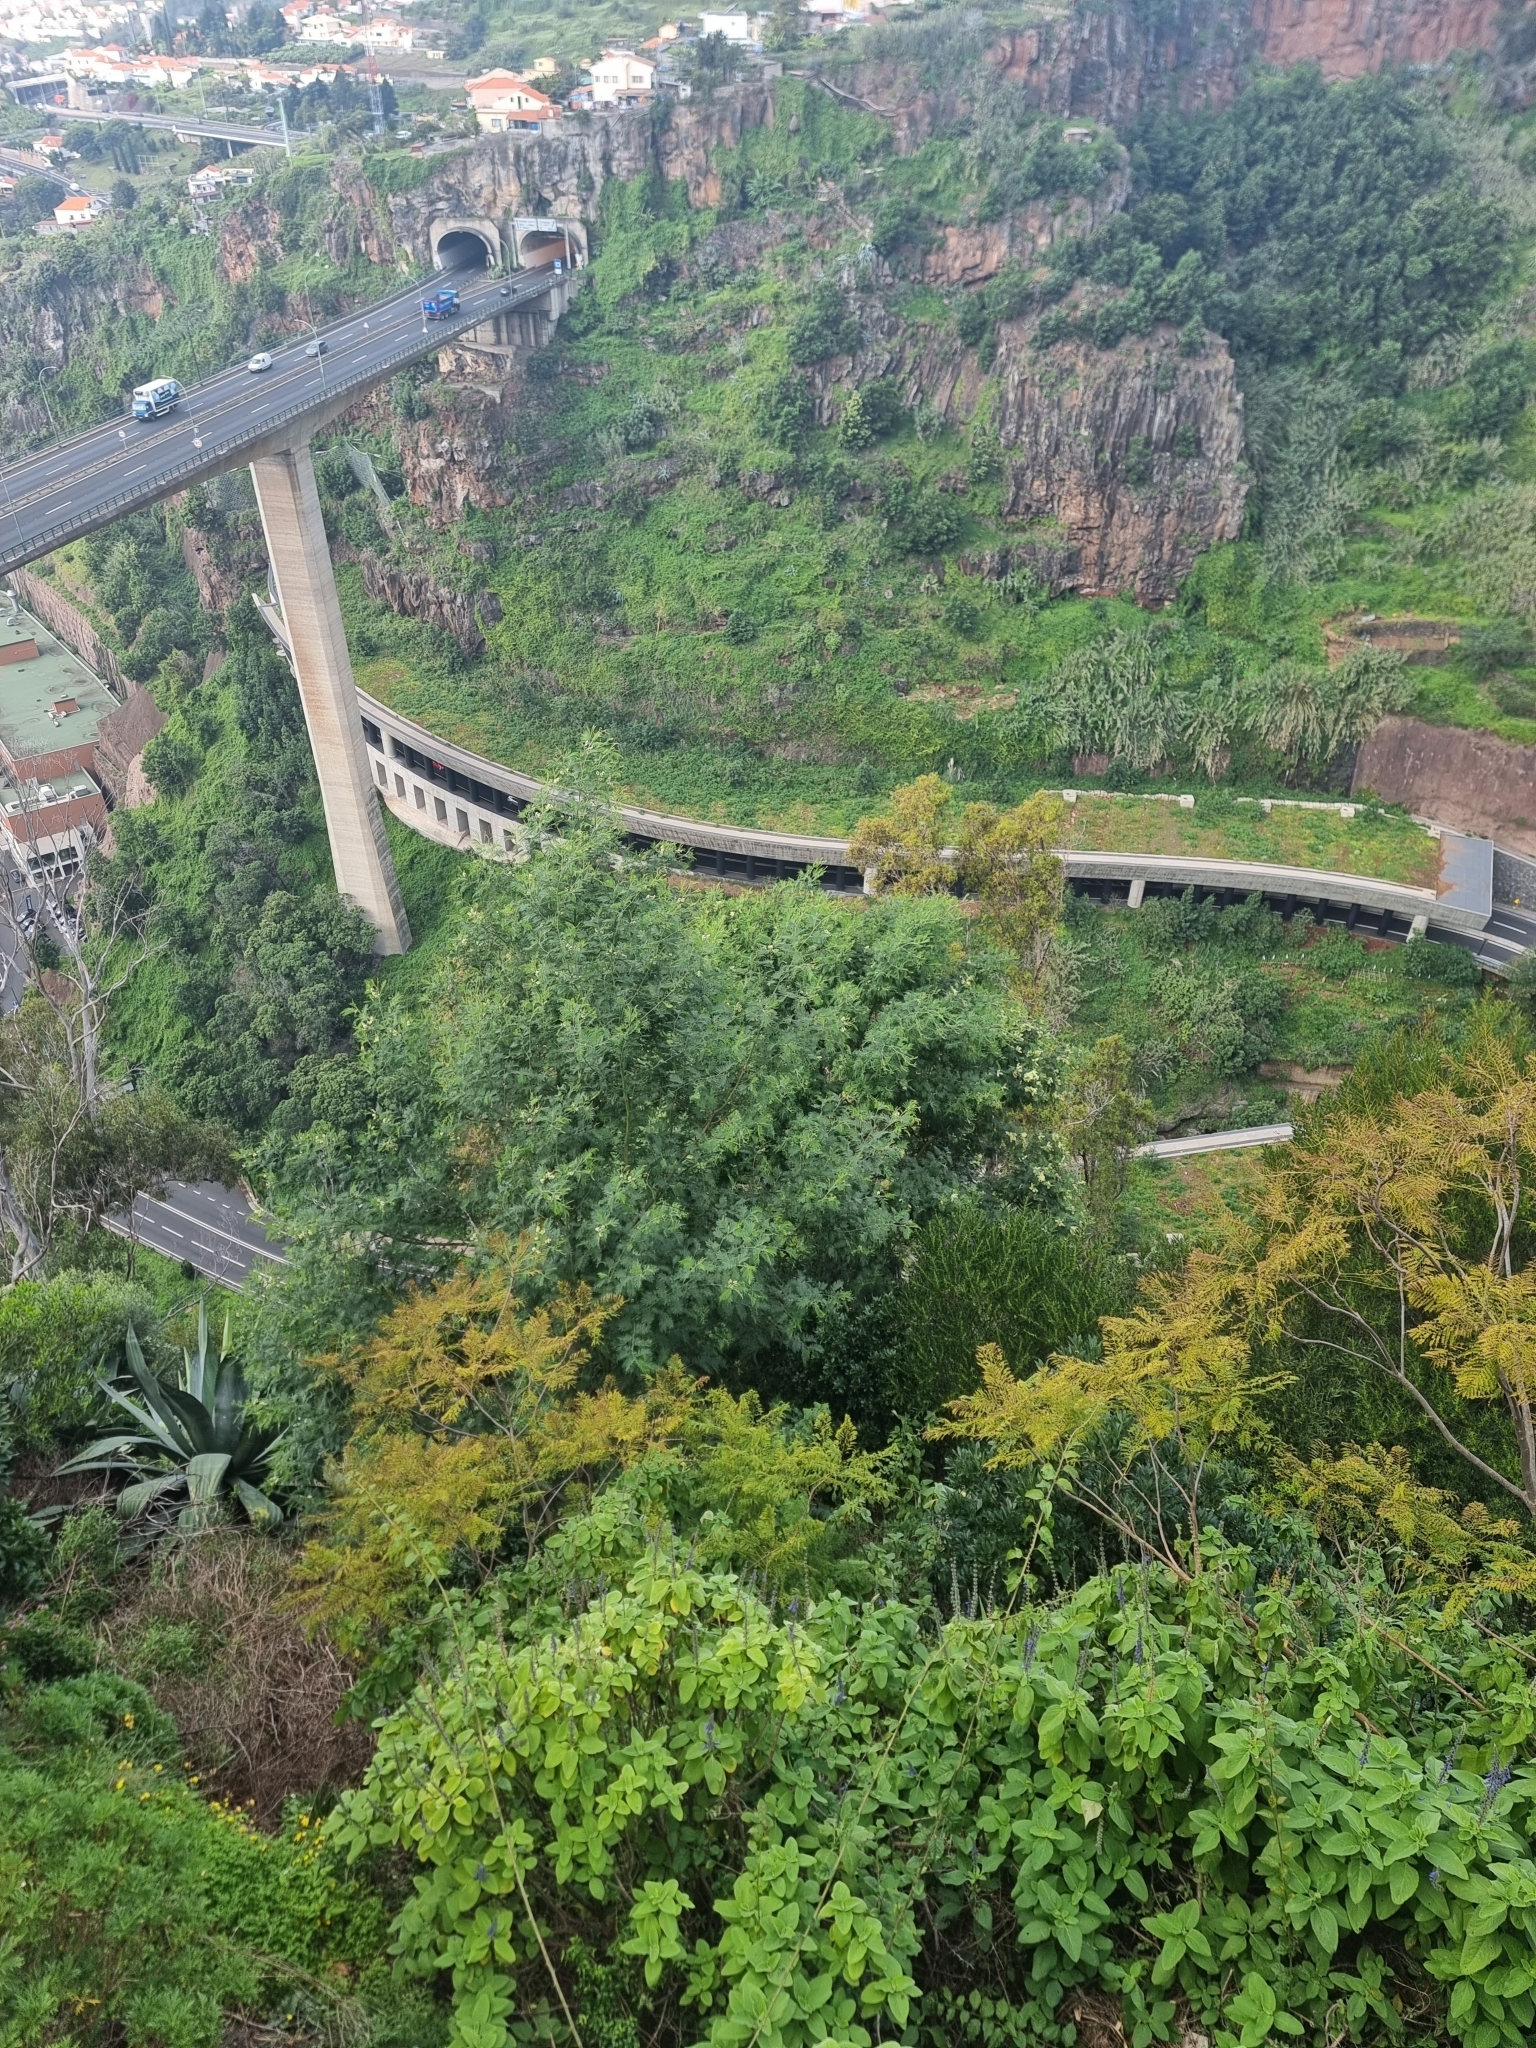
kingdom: Plantae
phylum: Tracheophyta
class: Magnoliopsida
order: Fabales
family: Fabaceae
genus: Acacia
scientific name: Acacia mearnsii
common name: Black wattle
